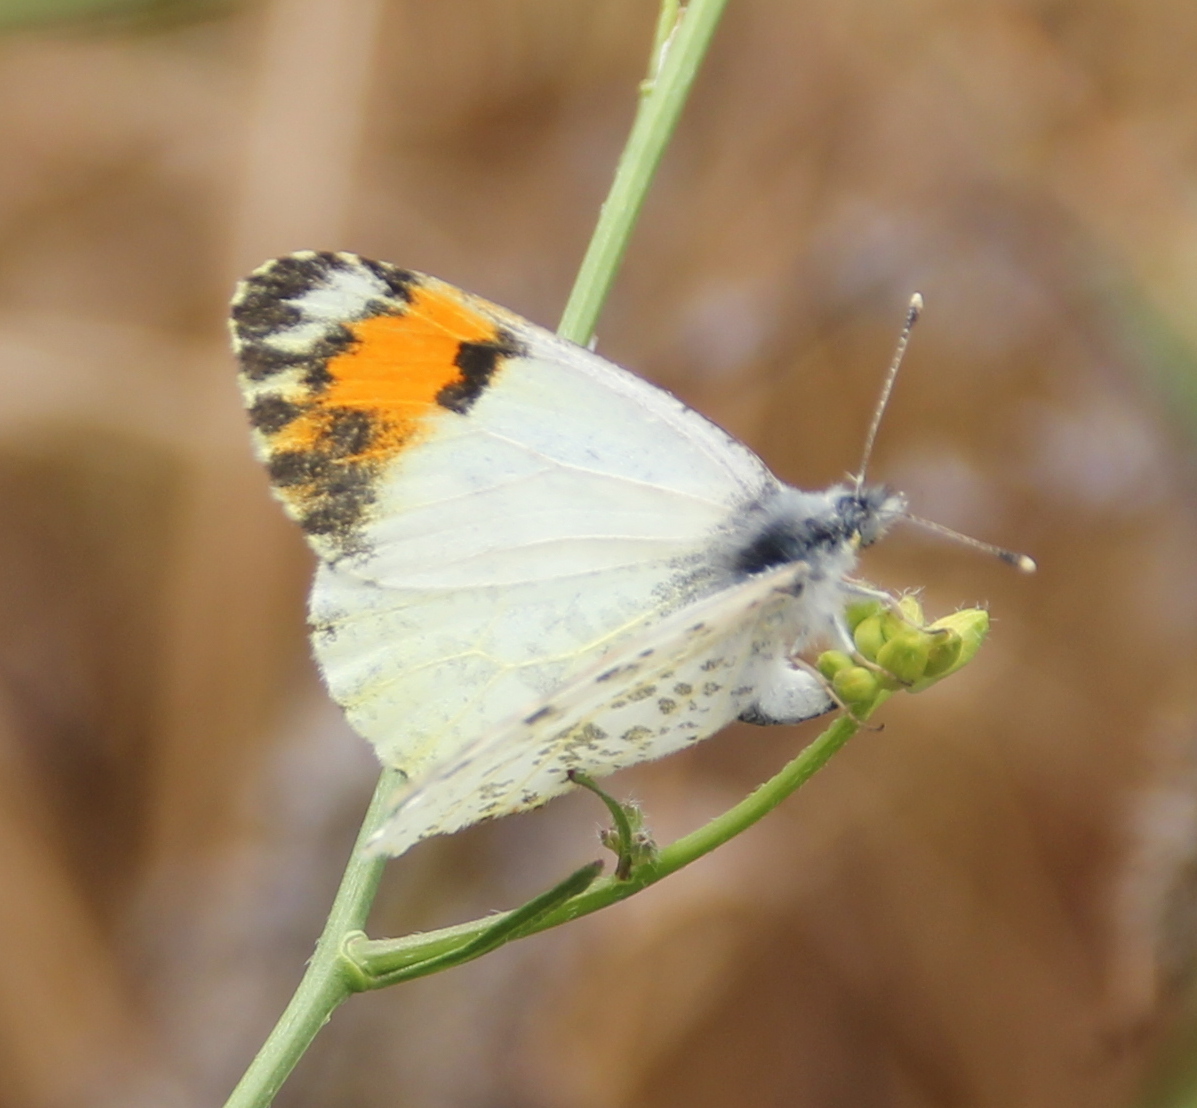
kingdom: Animalia
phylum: Arthropoda
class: Insecta
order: Lepidoptera
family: Pieridae
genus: Anthocharis
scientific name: Anthocharis sara
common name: Sara's orangetip
